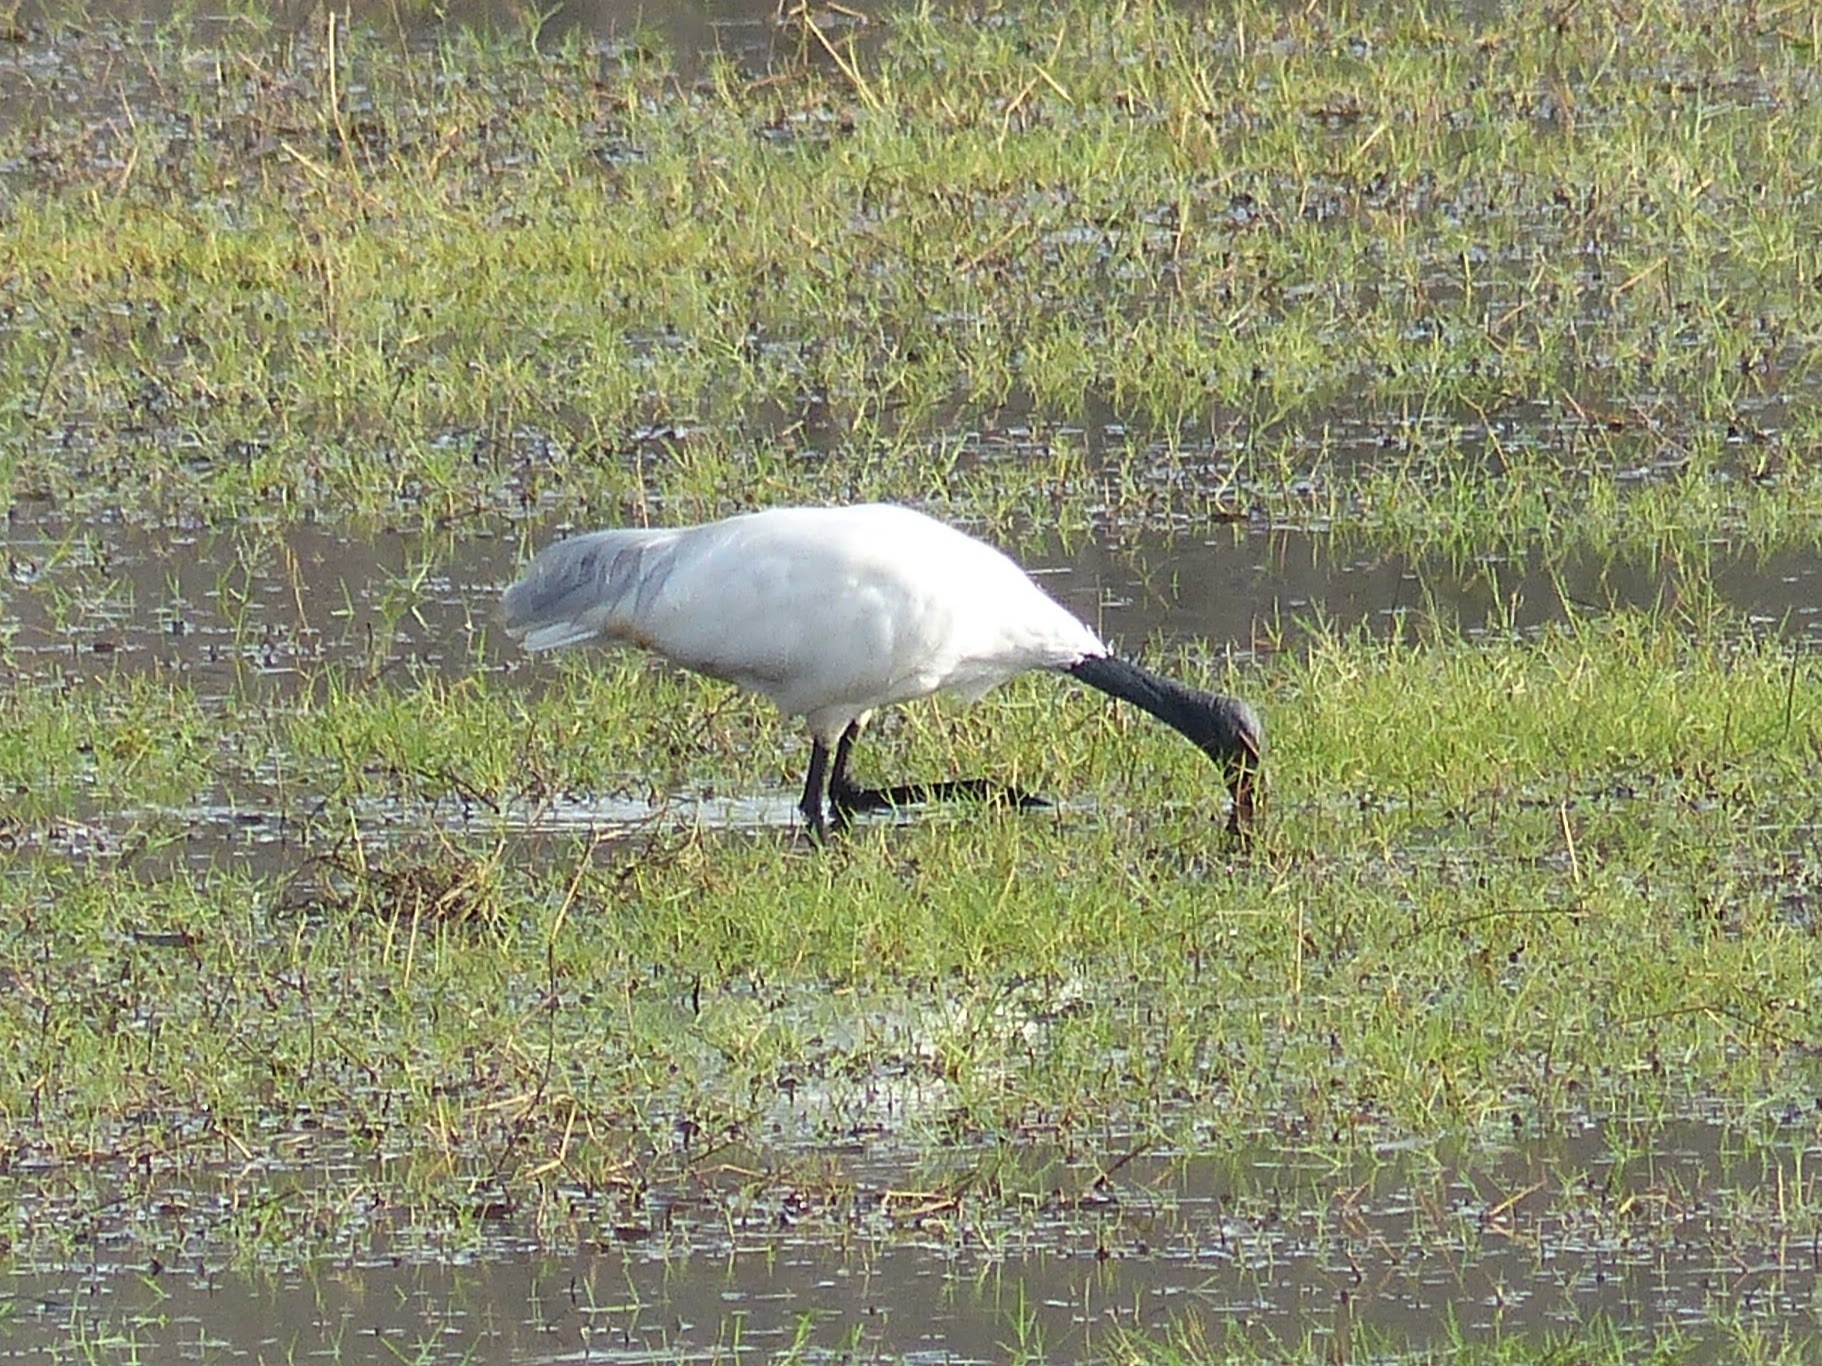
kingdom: Animalia
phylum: Chordata
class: Aves
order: Pelecaniformes
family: Threskiornithidae
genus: Threskiornis
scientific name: Threskiornis melanocephalus
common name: Black-headed ibis
